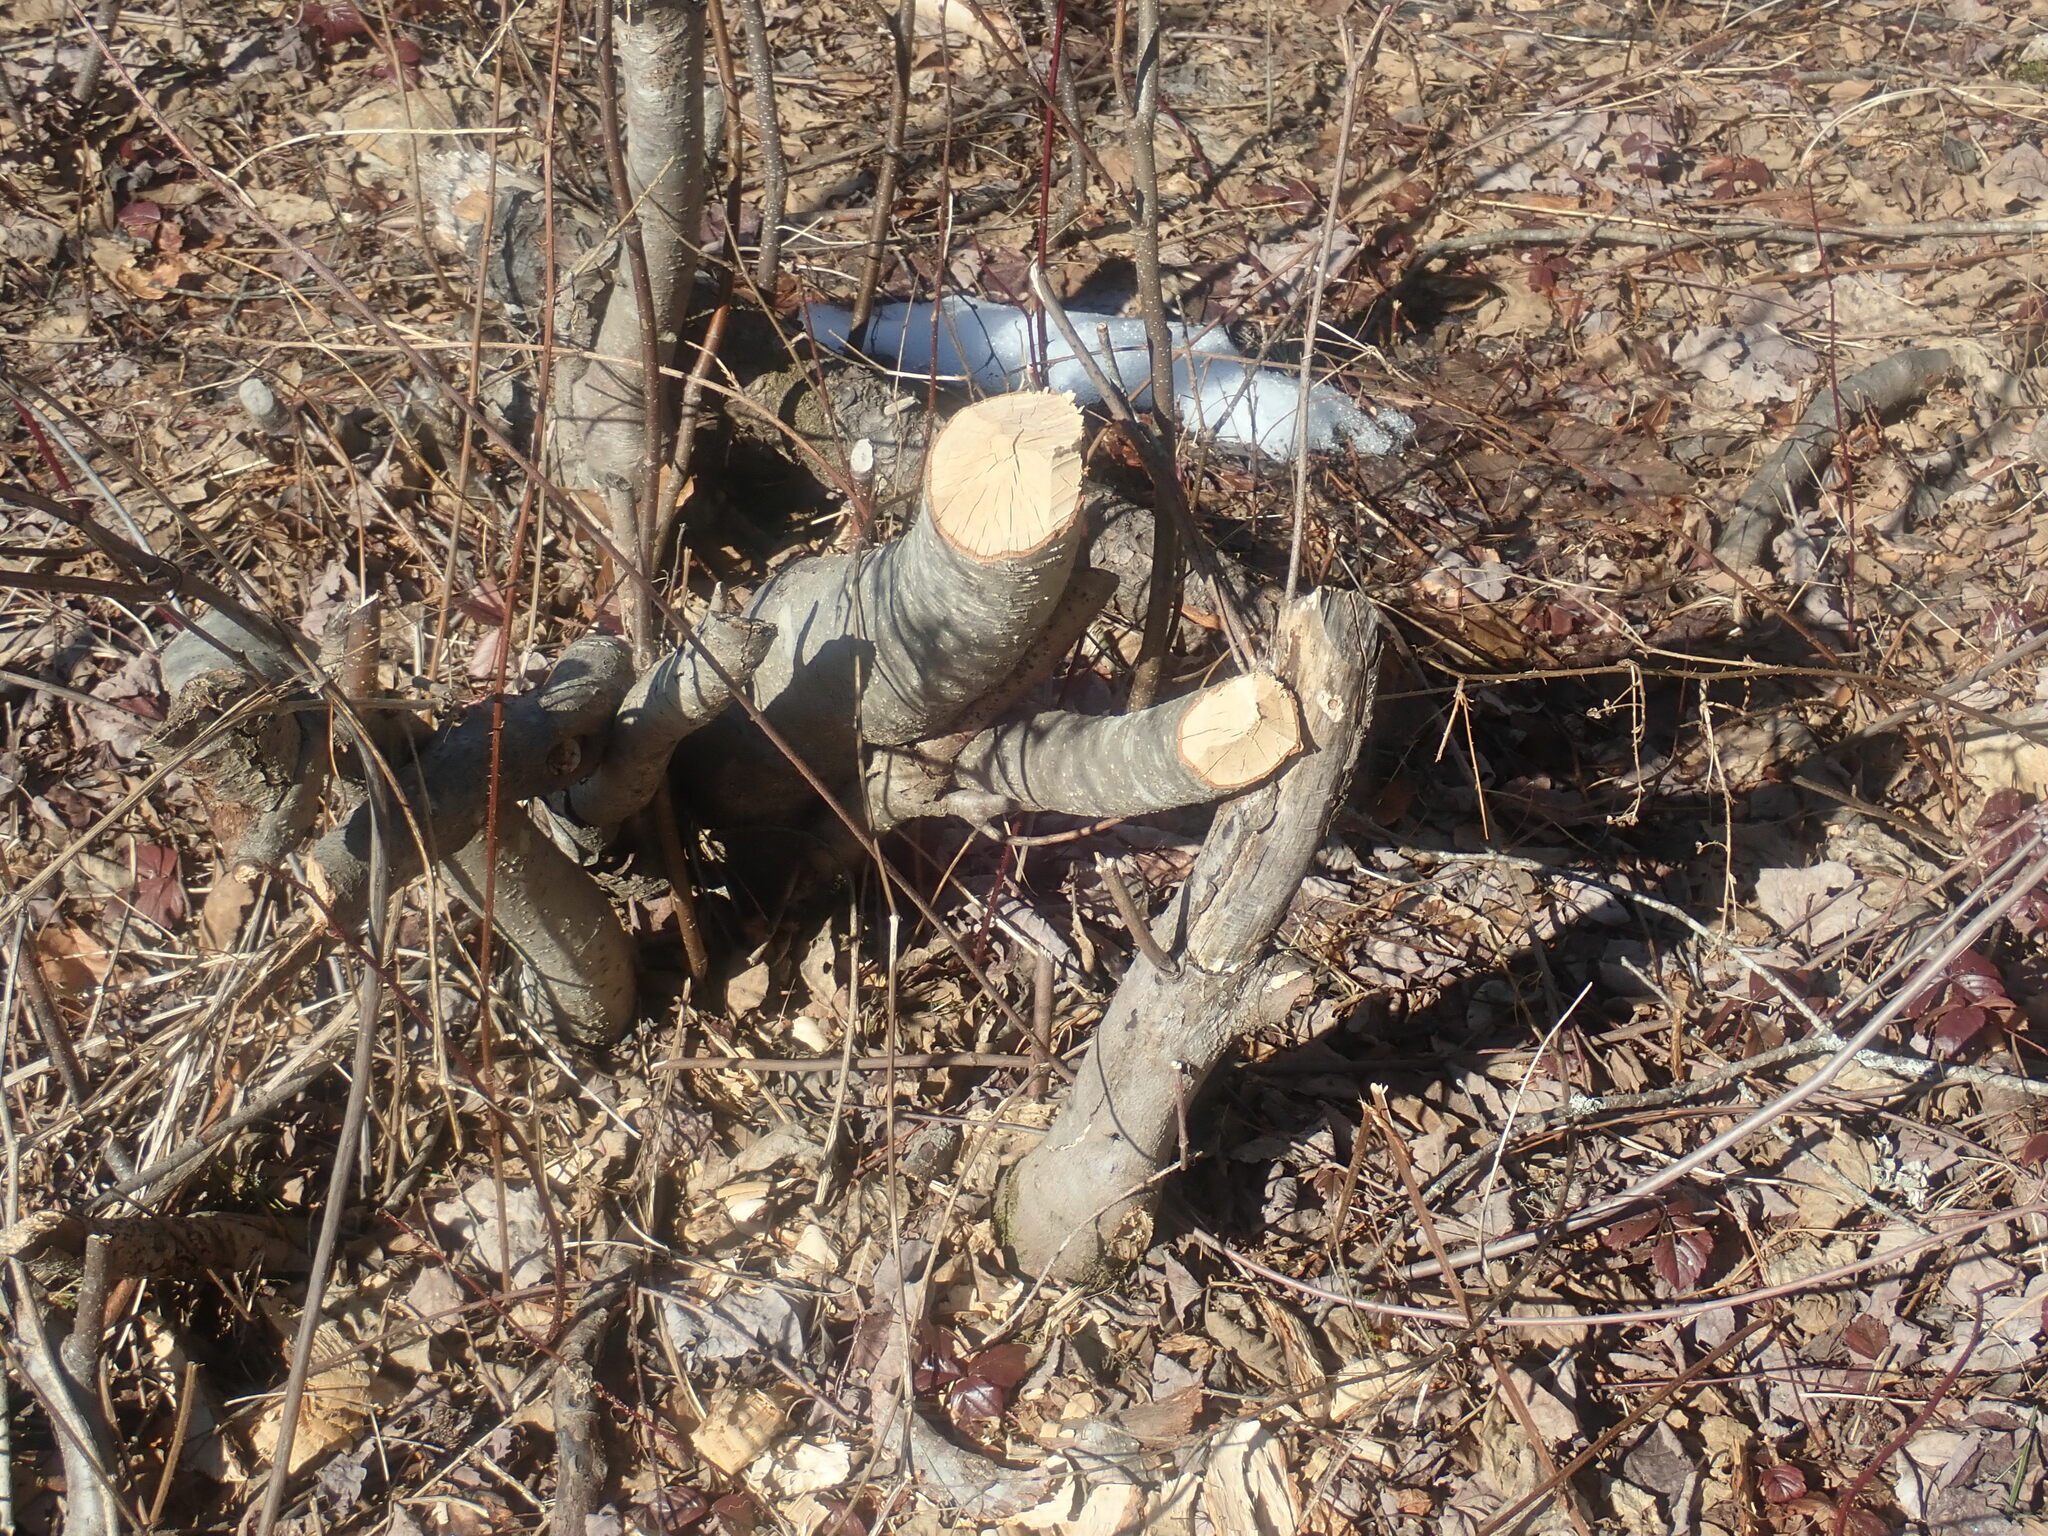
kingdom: Animalia
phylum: Chordata
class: Mammalia
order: Rodentia
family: Castoridae
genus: Castor
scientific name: Castor canadensis
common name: American beaver
